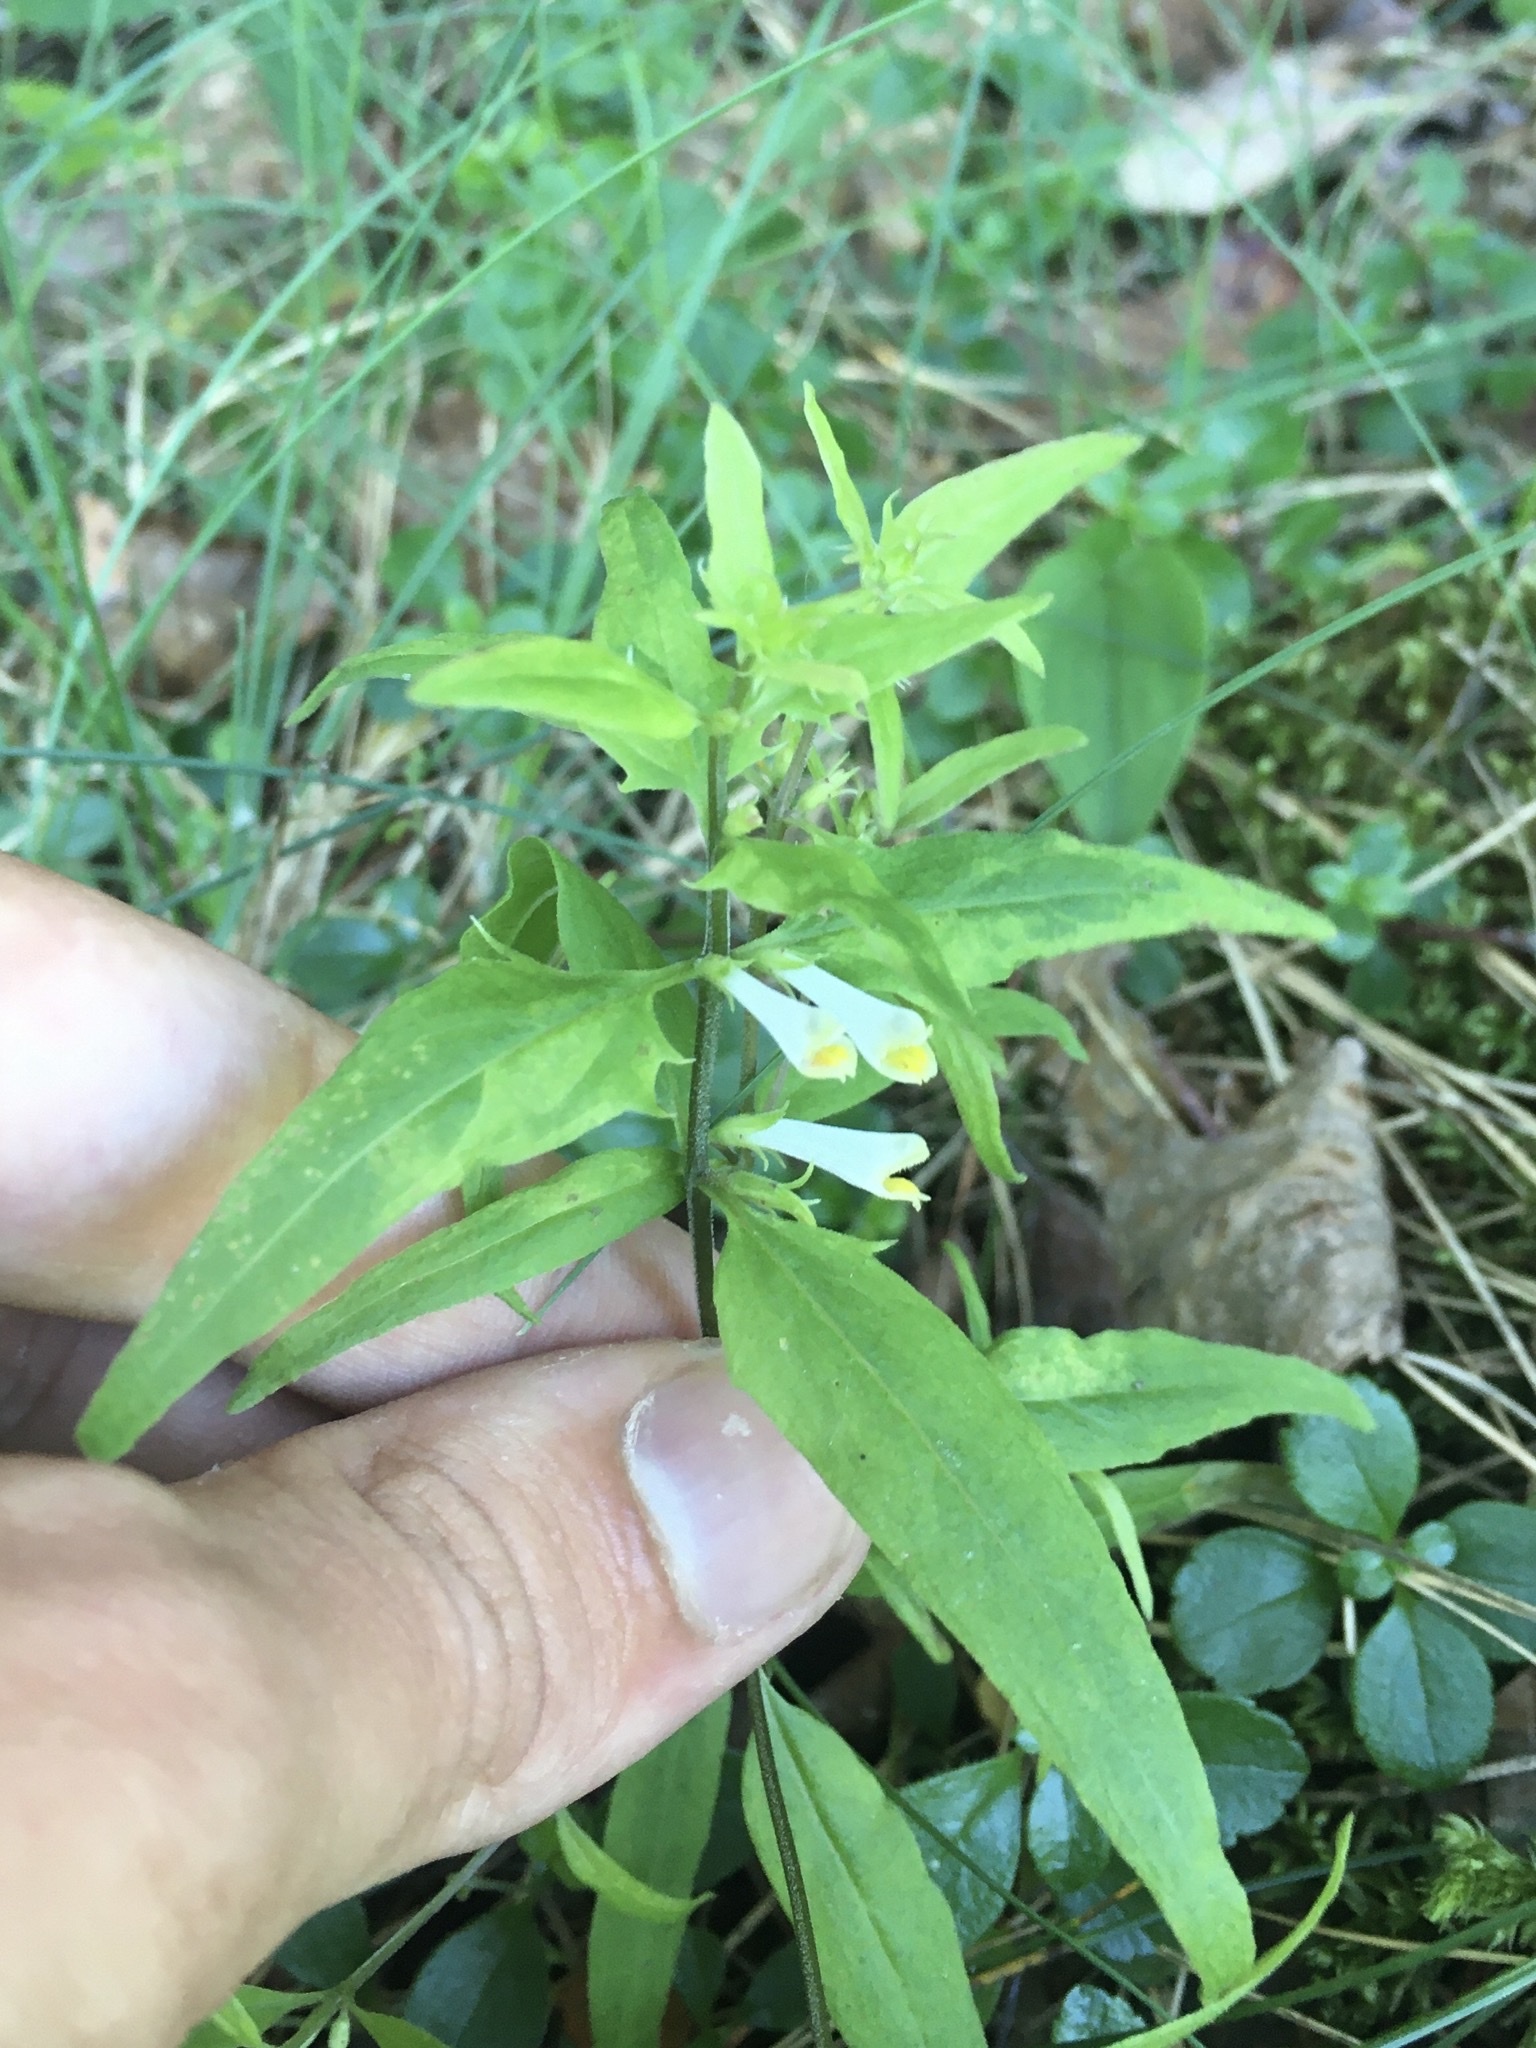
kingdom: Plantae
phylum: Tracheophyta
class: Magnoliopsida
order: Lamiales
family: Orobanchaceae
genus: Melampyrum
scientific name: Melampyrum lineare
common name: American cow-wheat
